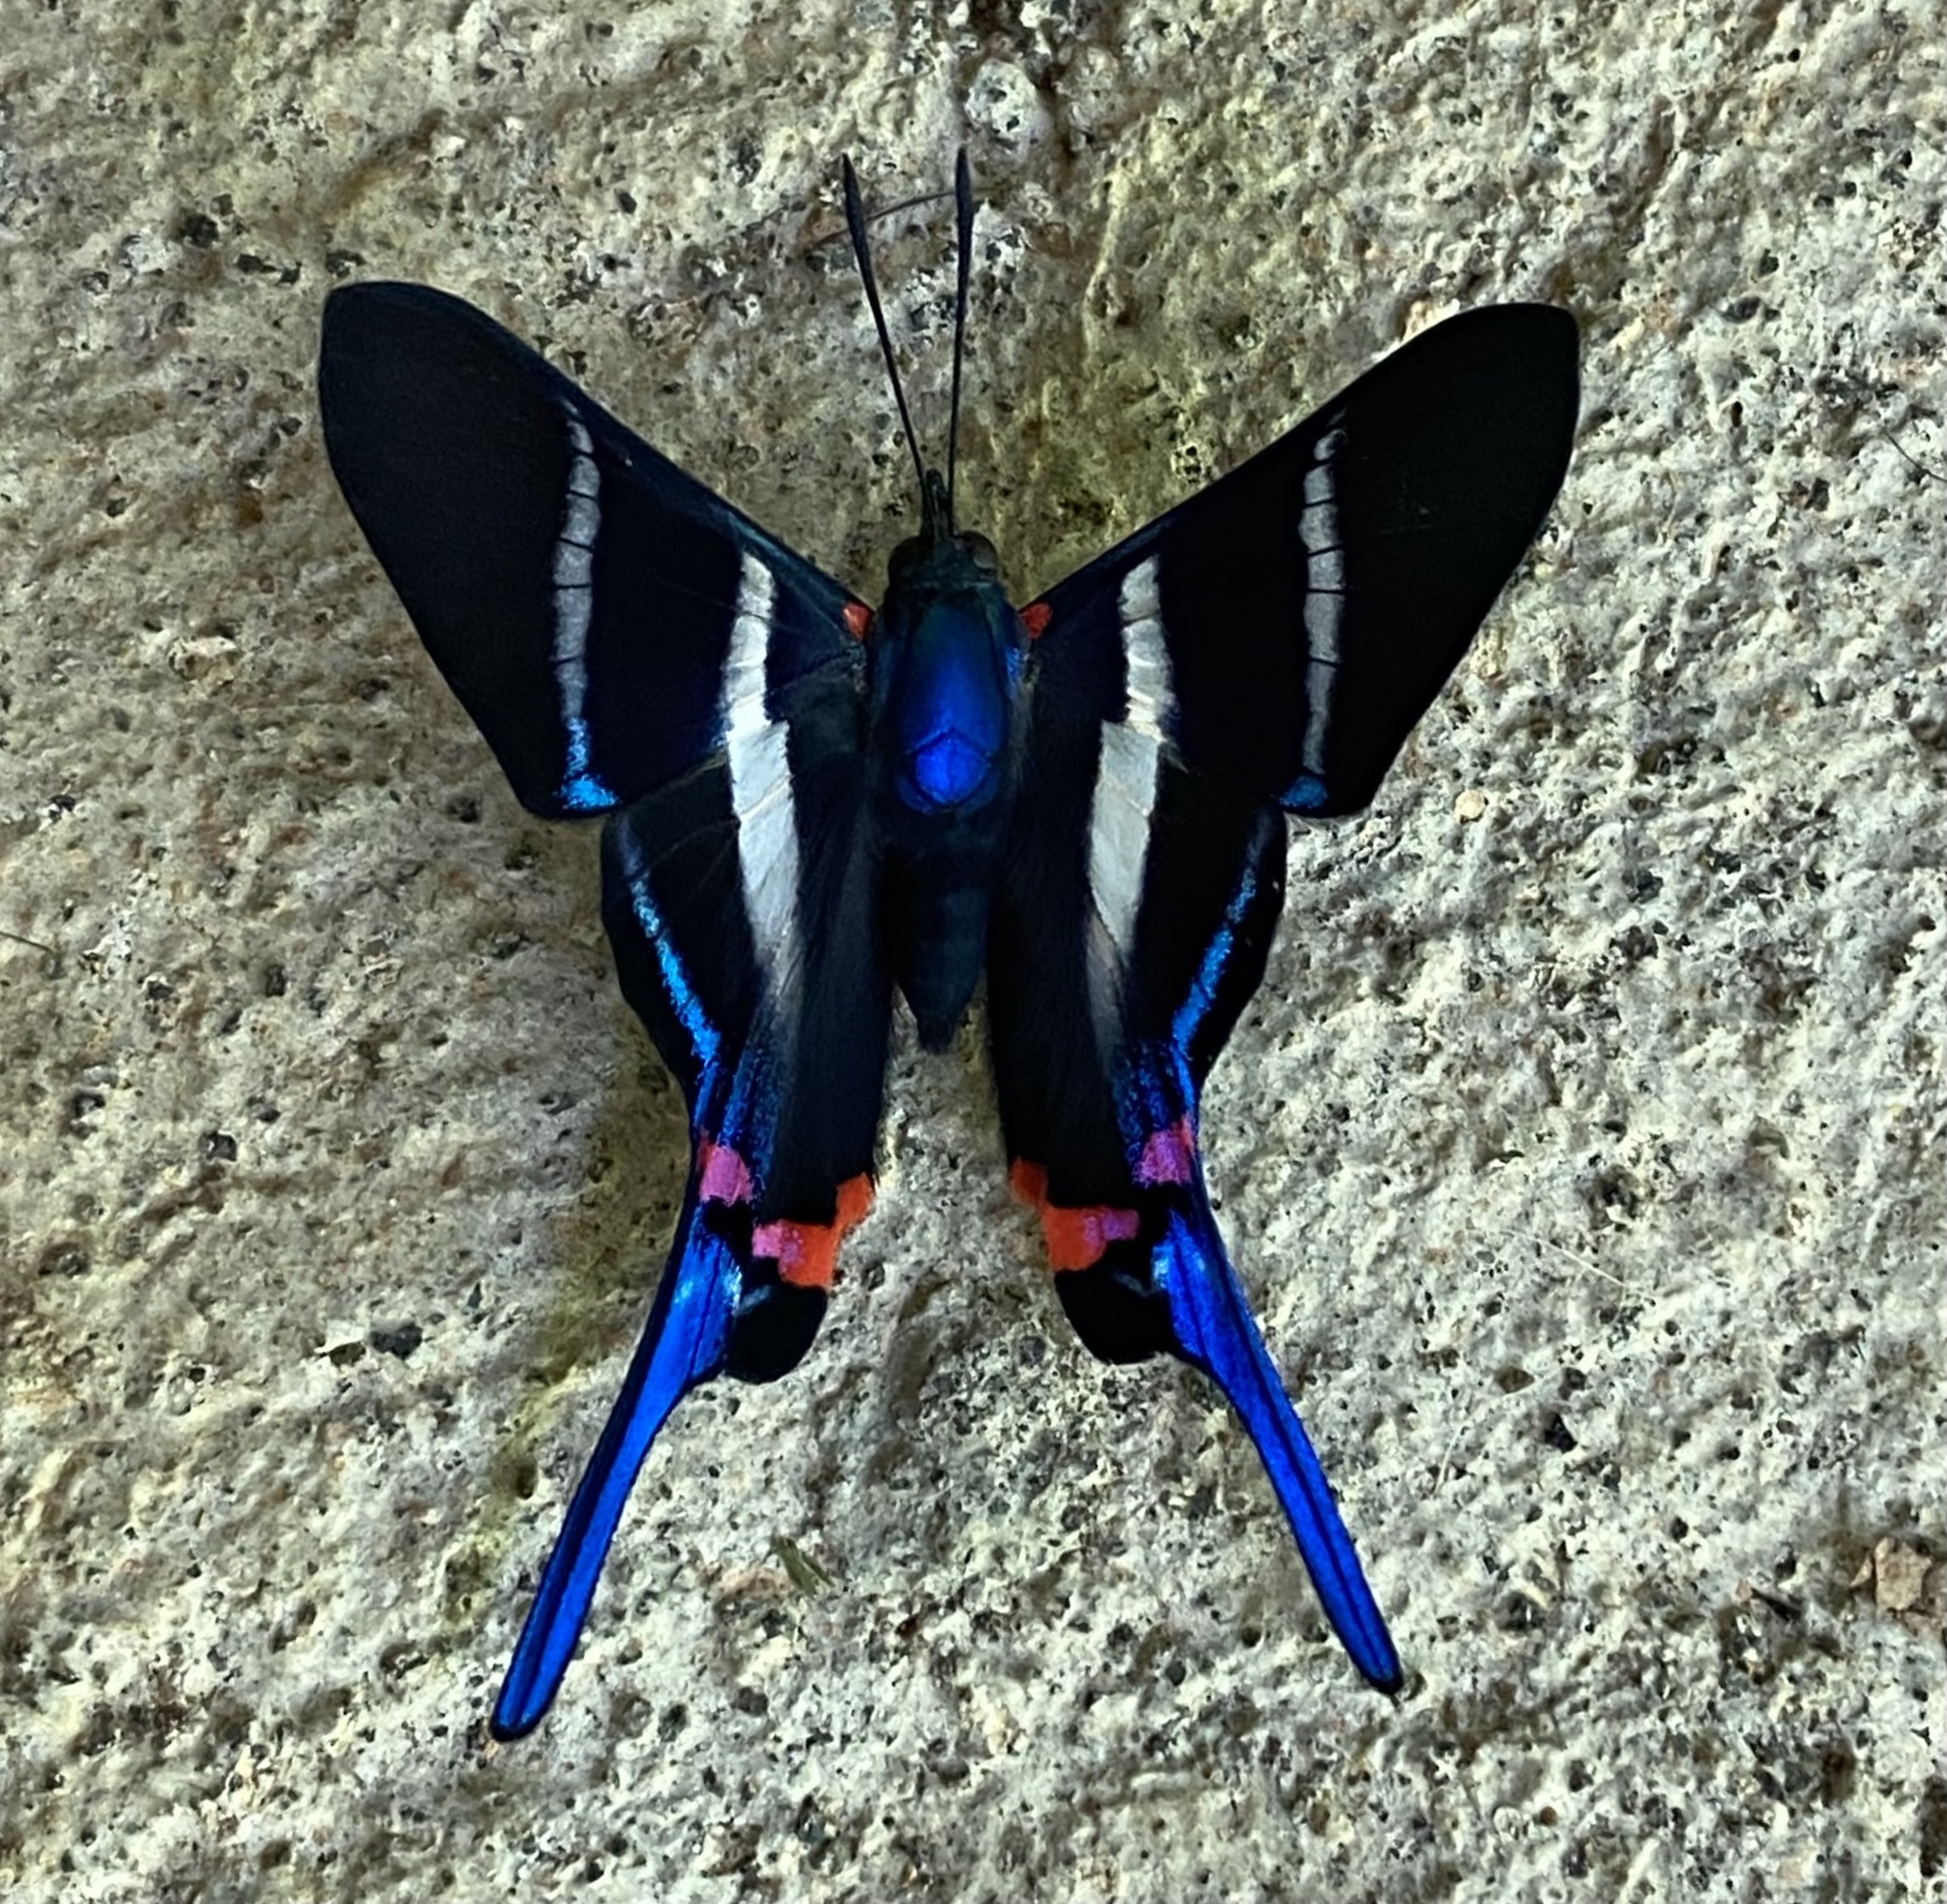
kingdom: Animalia
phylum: Arthropoda
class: Insecta
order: Lepidoptera
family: Riodinidae
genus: Rhetus
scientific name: Rhetus arcius
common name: Long-tailed metalmark
